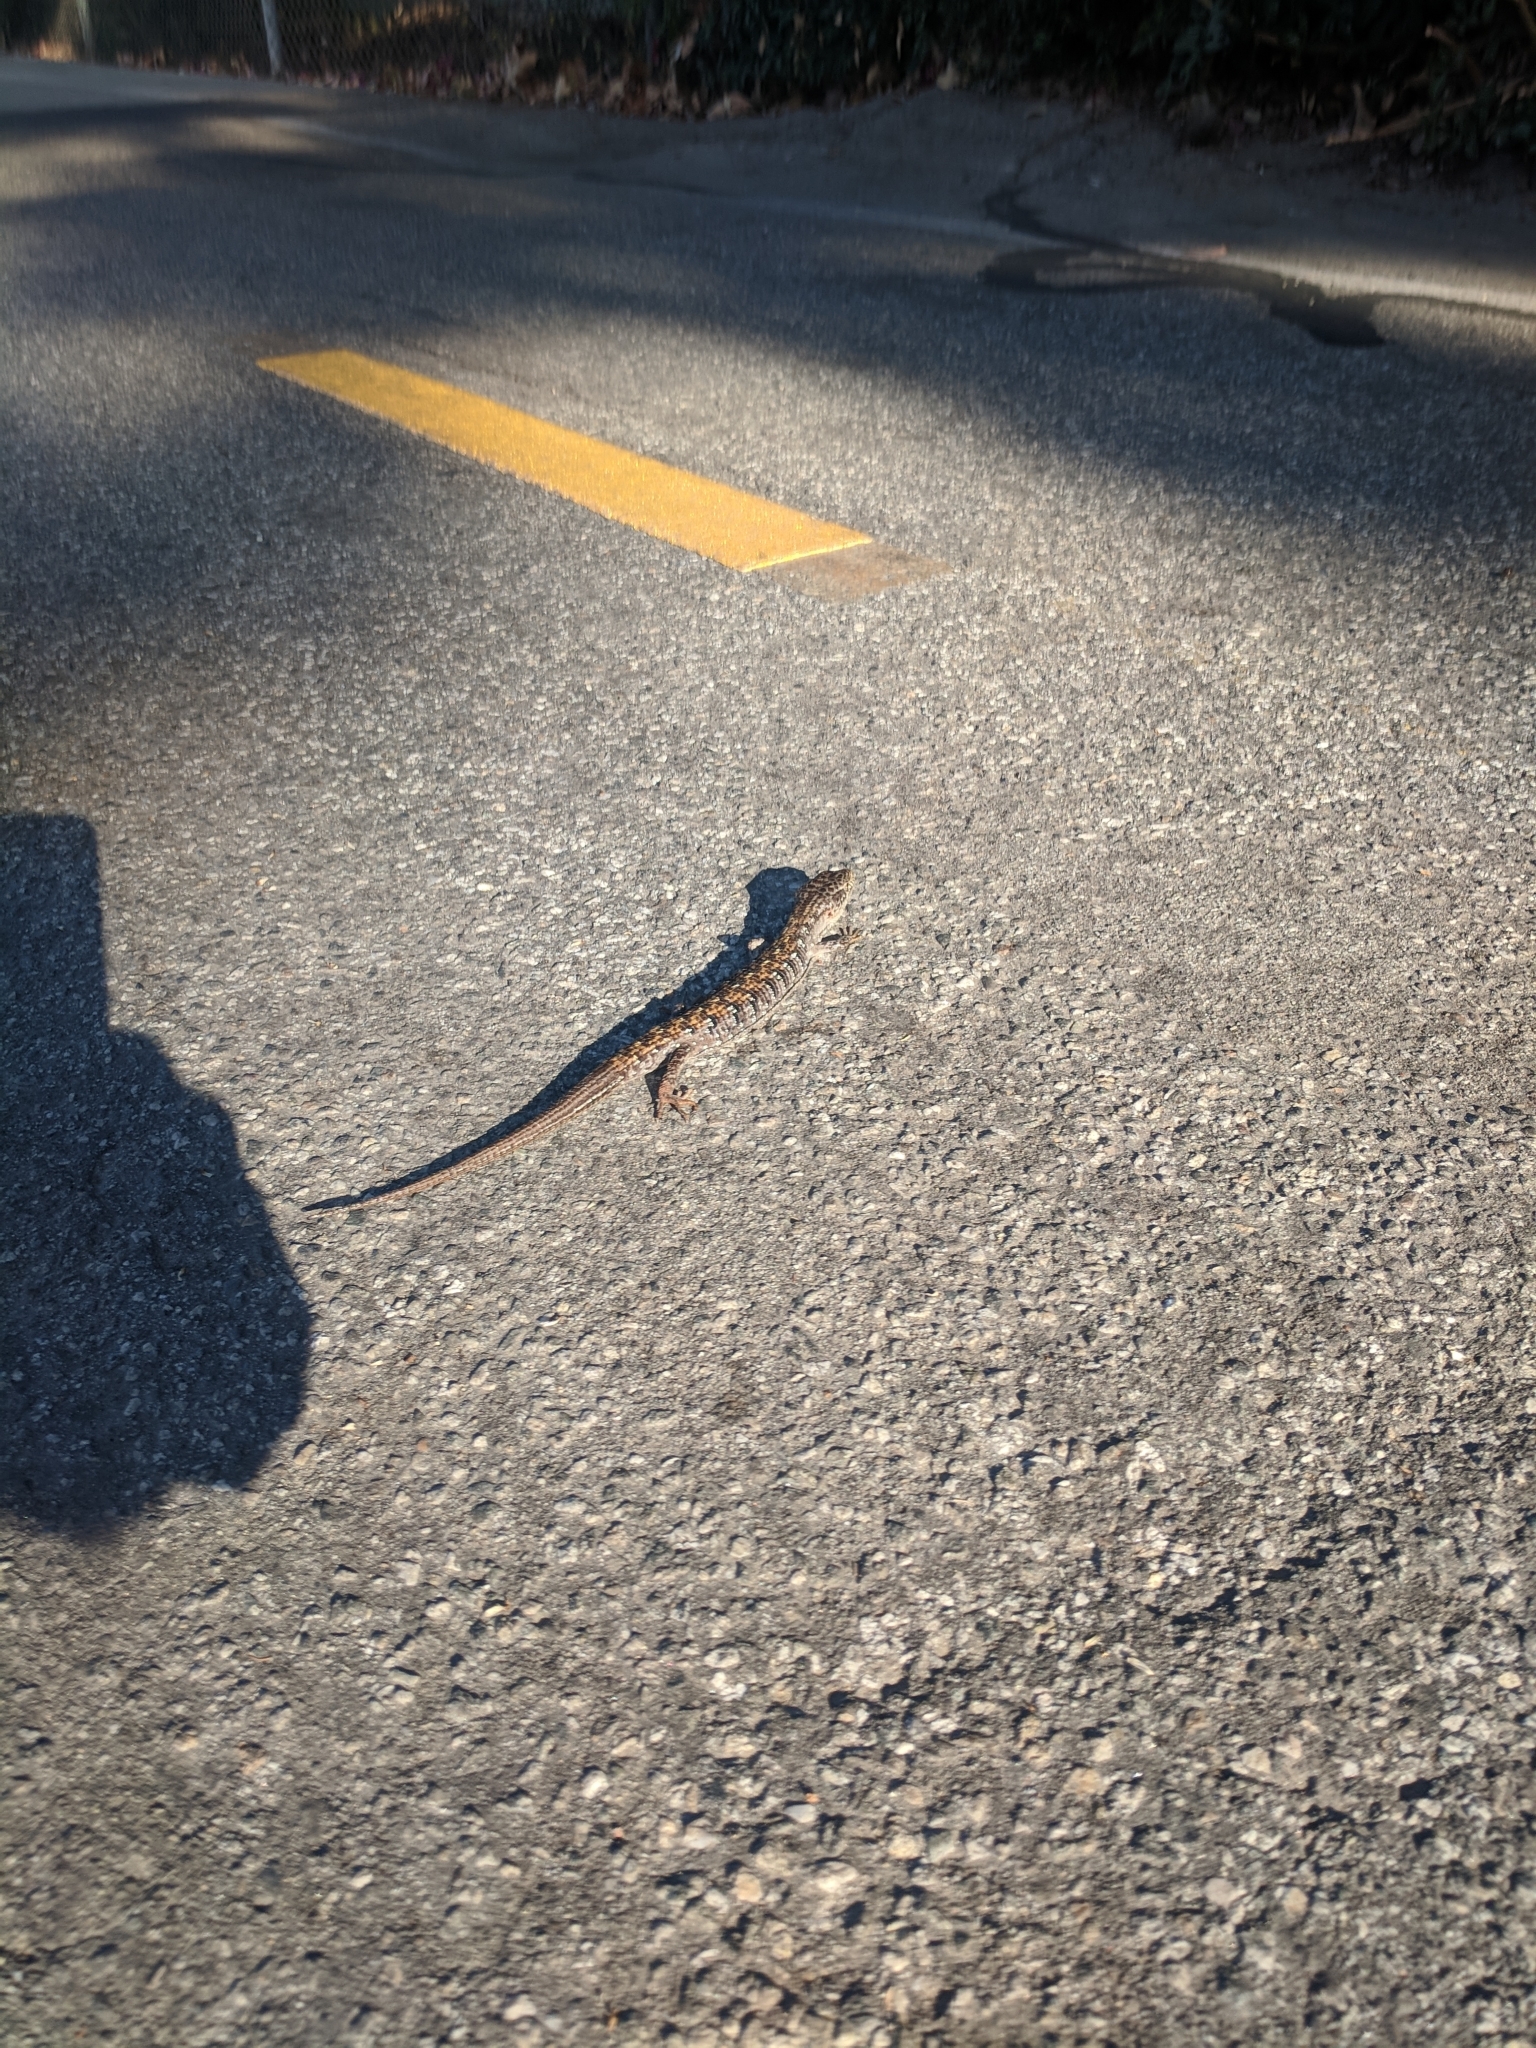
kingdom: Animalia
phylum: Chordata
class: Squamata
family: Anguidae
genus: Elgaria
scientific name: Elgaria multicarinata
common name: Southern alligator lizard
